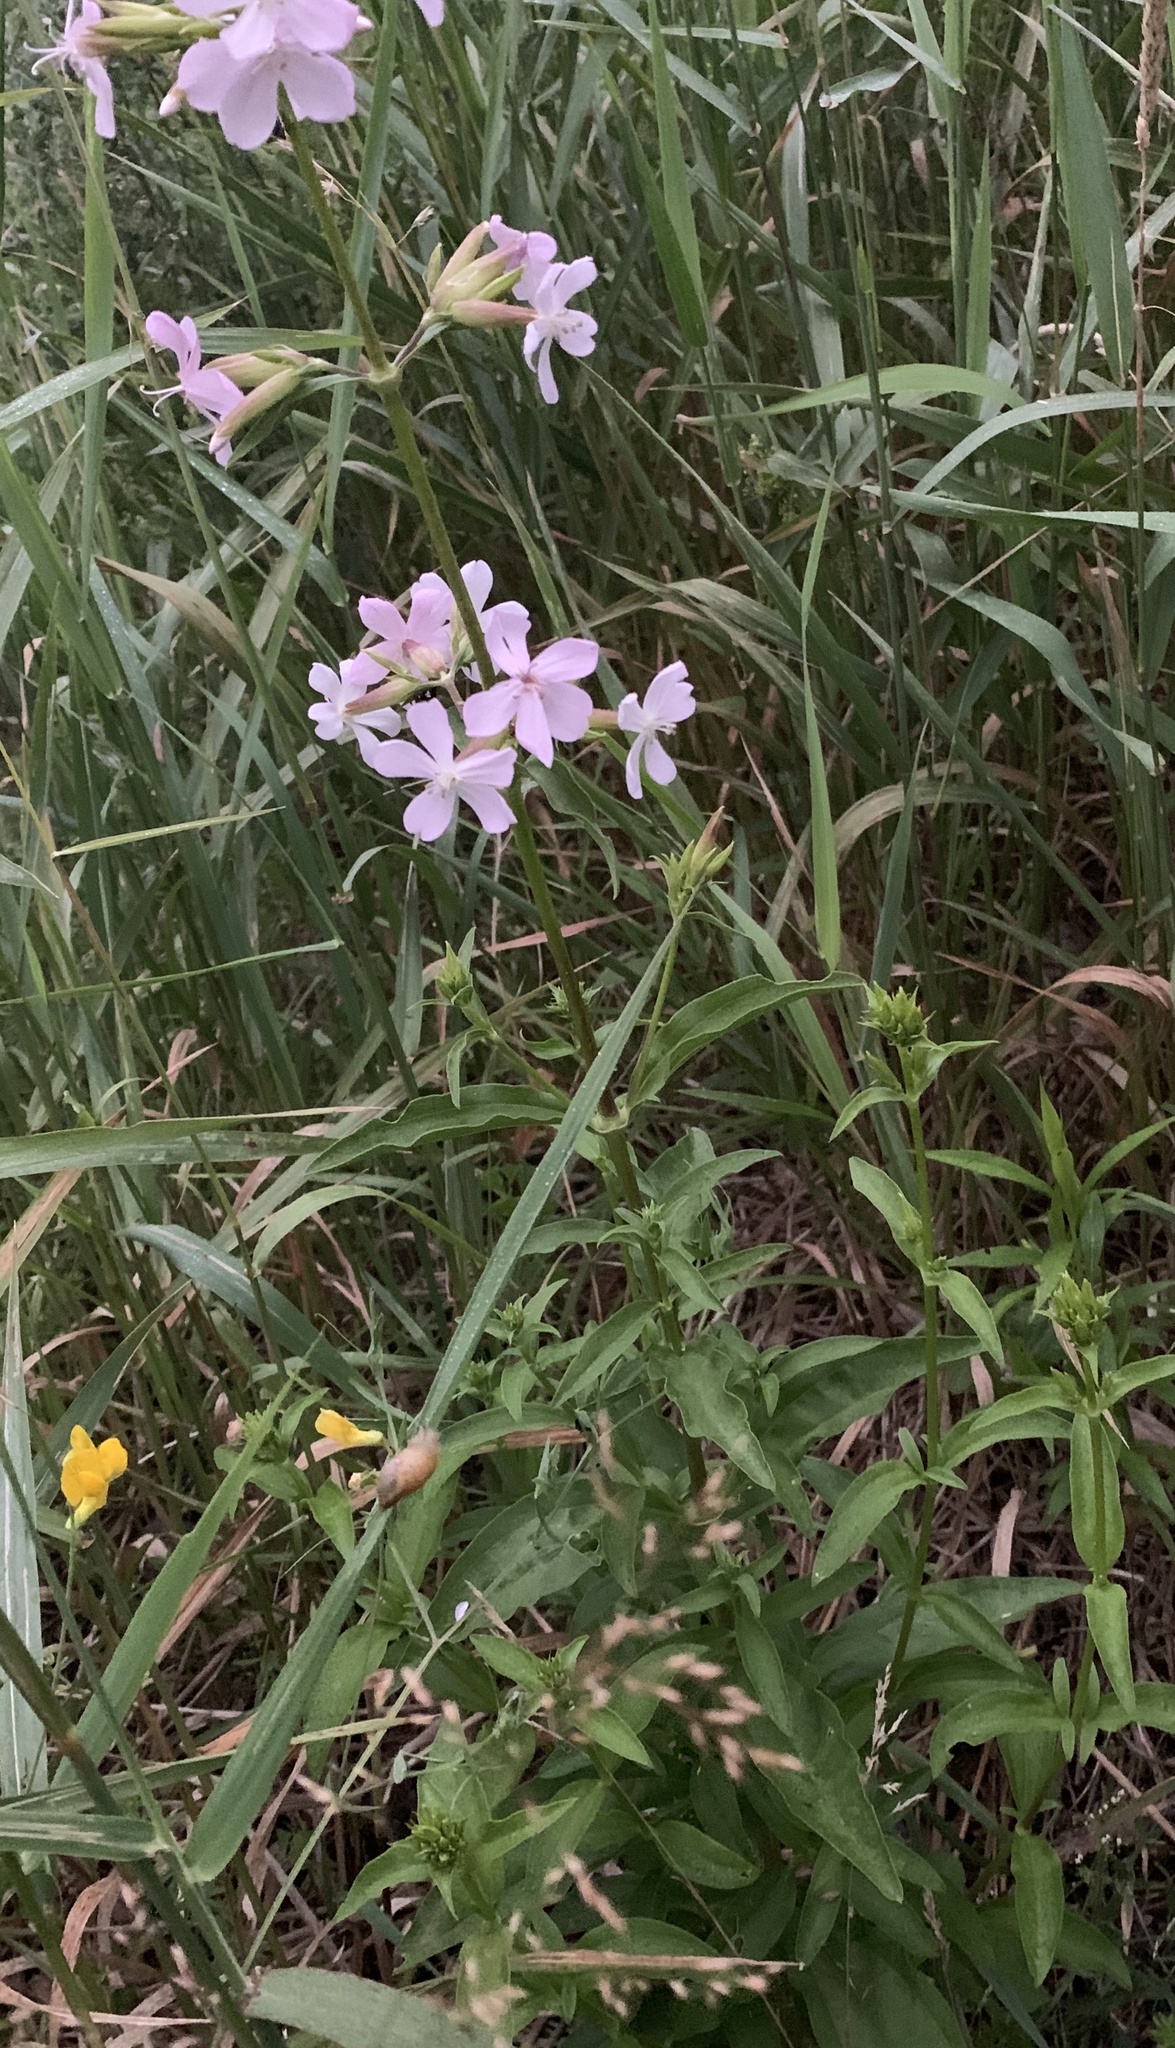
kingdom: Plantae
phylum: Tracheophyta
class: Magnoliopsida
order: Caryophyllales
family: Caryophyllaceae
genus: Saponaria
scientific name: Saponaria officinalis
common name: Soapwort
